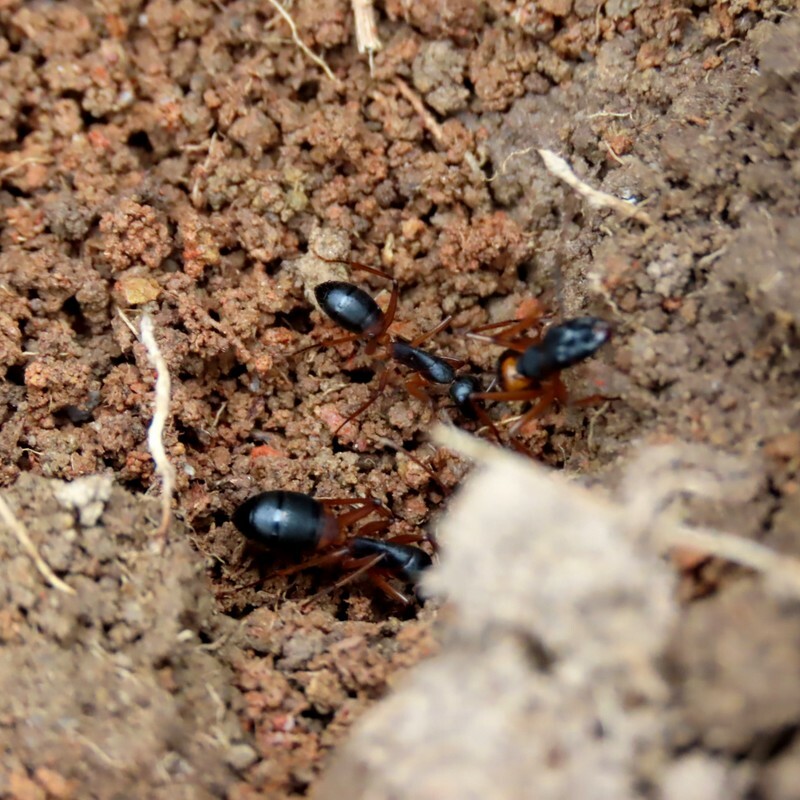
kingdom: Animalia
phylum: Arthropoda
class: Insecta
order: Hymenoptera
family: Formicidae
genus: Camponotus
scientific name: Camponotus consobrinus
